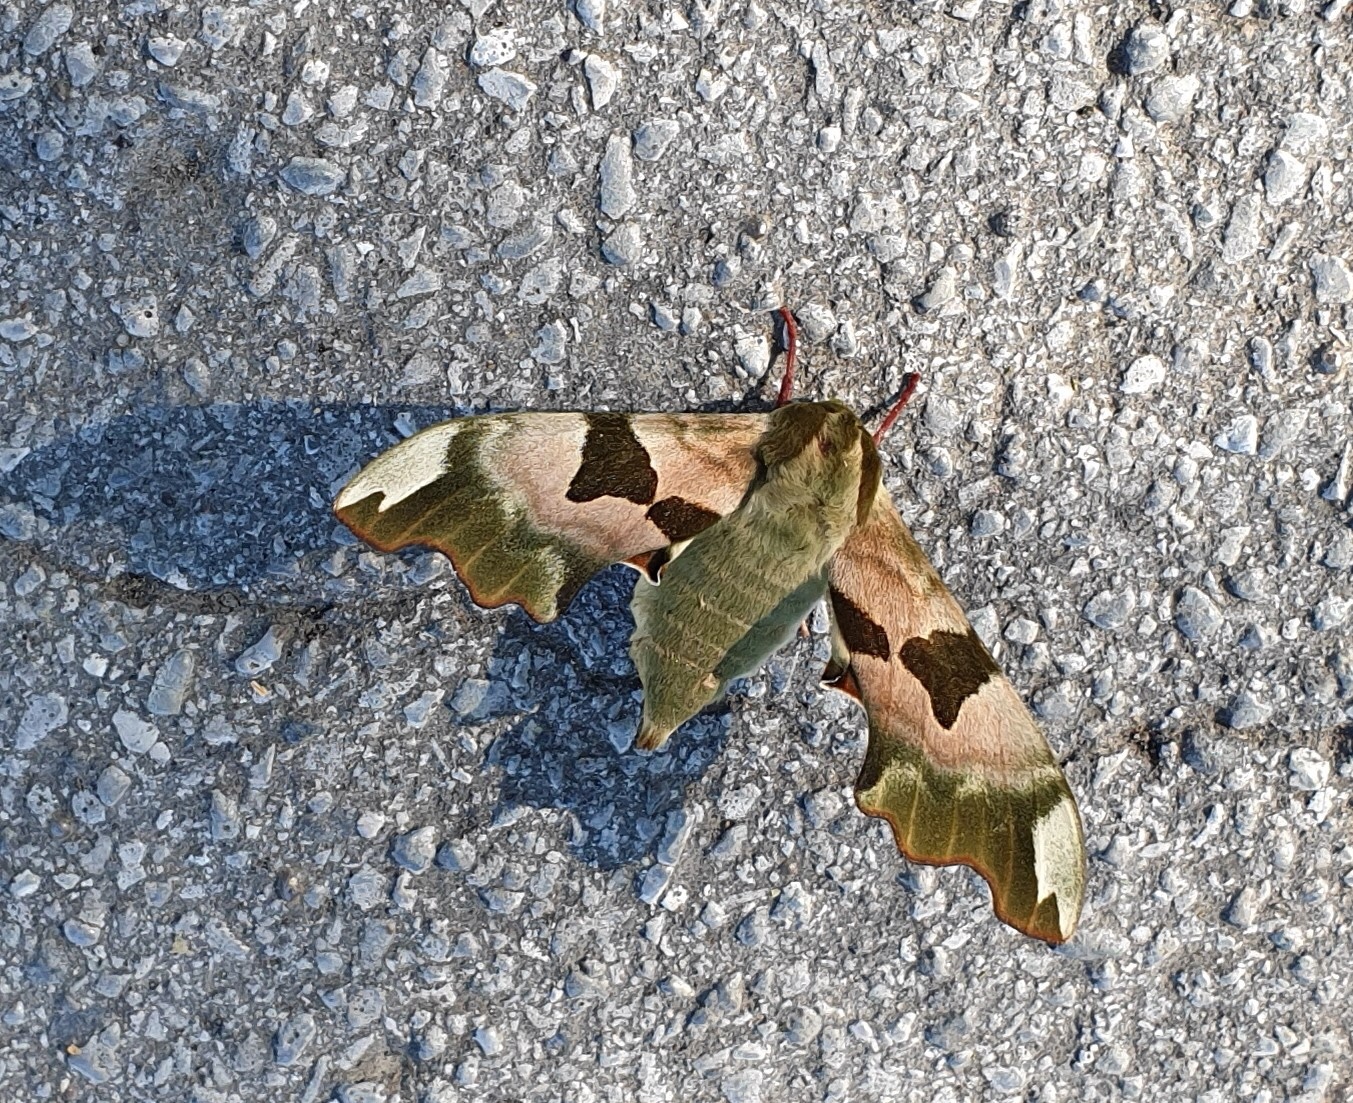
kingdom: Animalia
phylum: Arthropoda
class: Insecta
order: Lepidoptera
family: Sphingidae
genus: Mimas
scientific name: Mimas tiliae
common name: Lime hawk-moth
